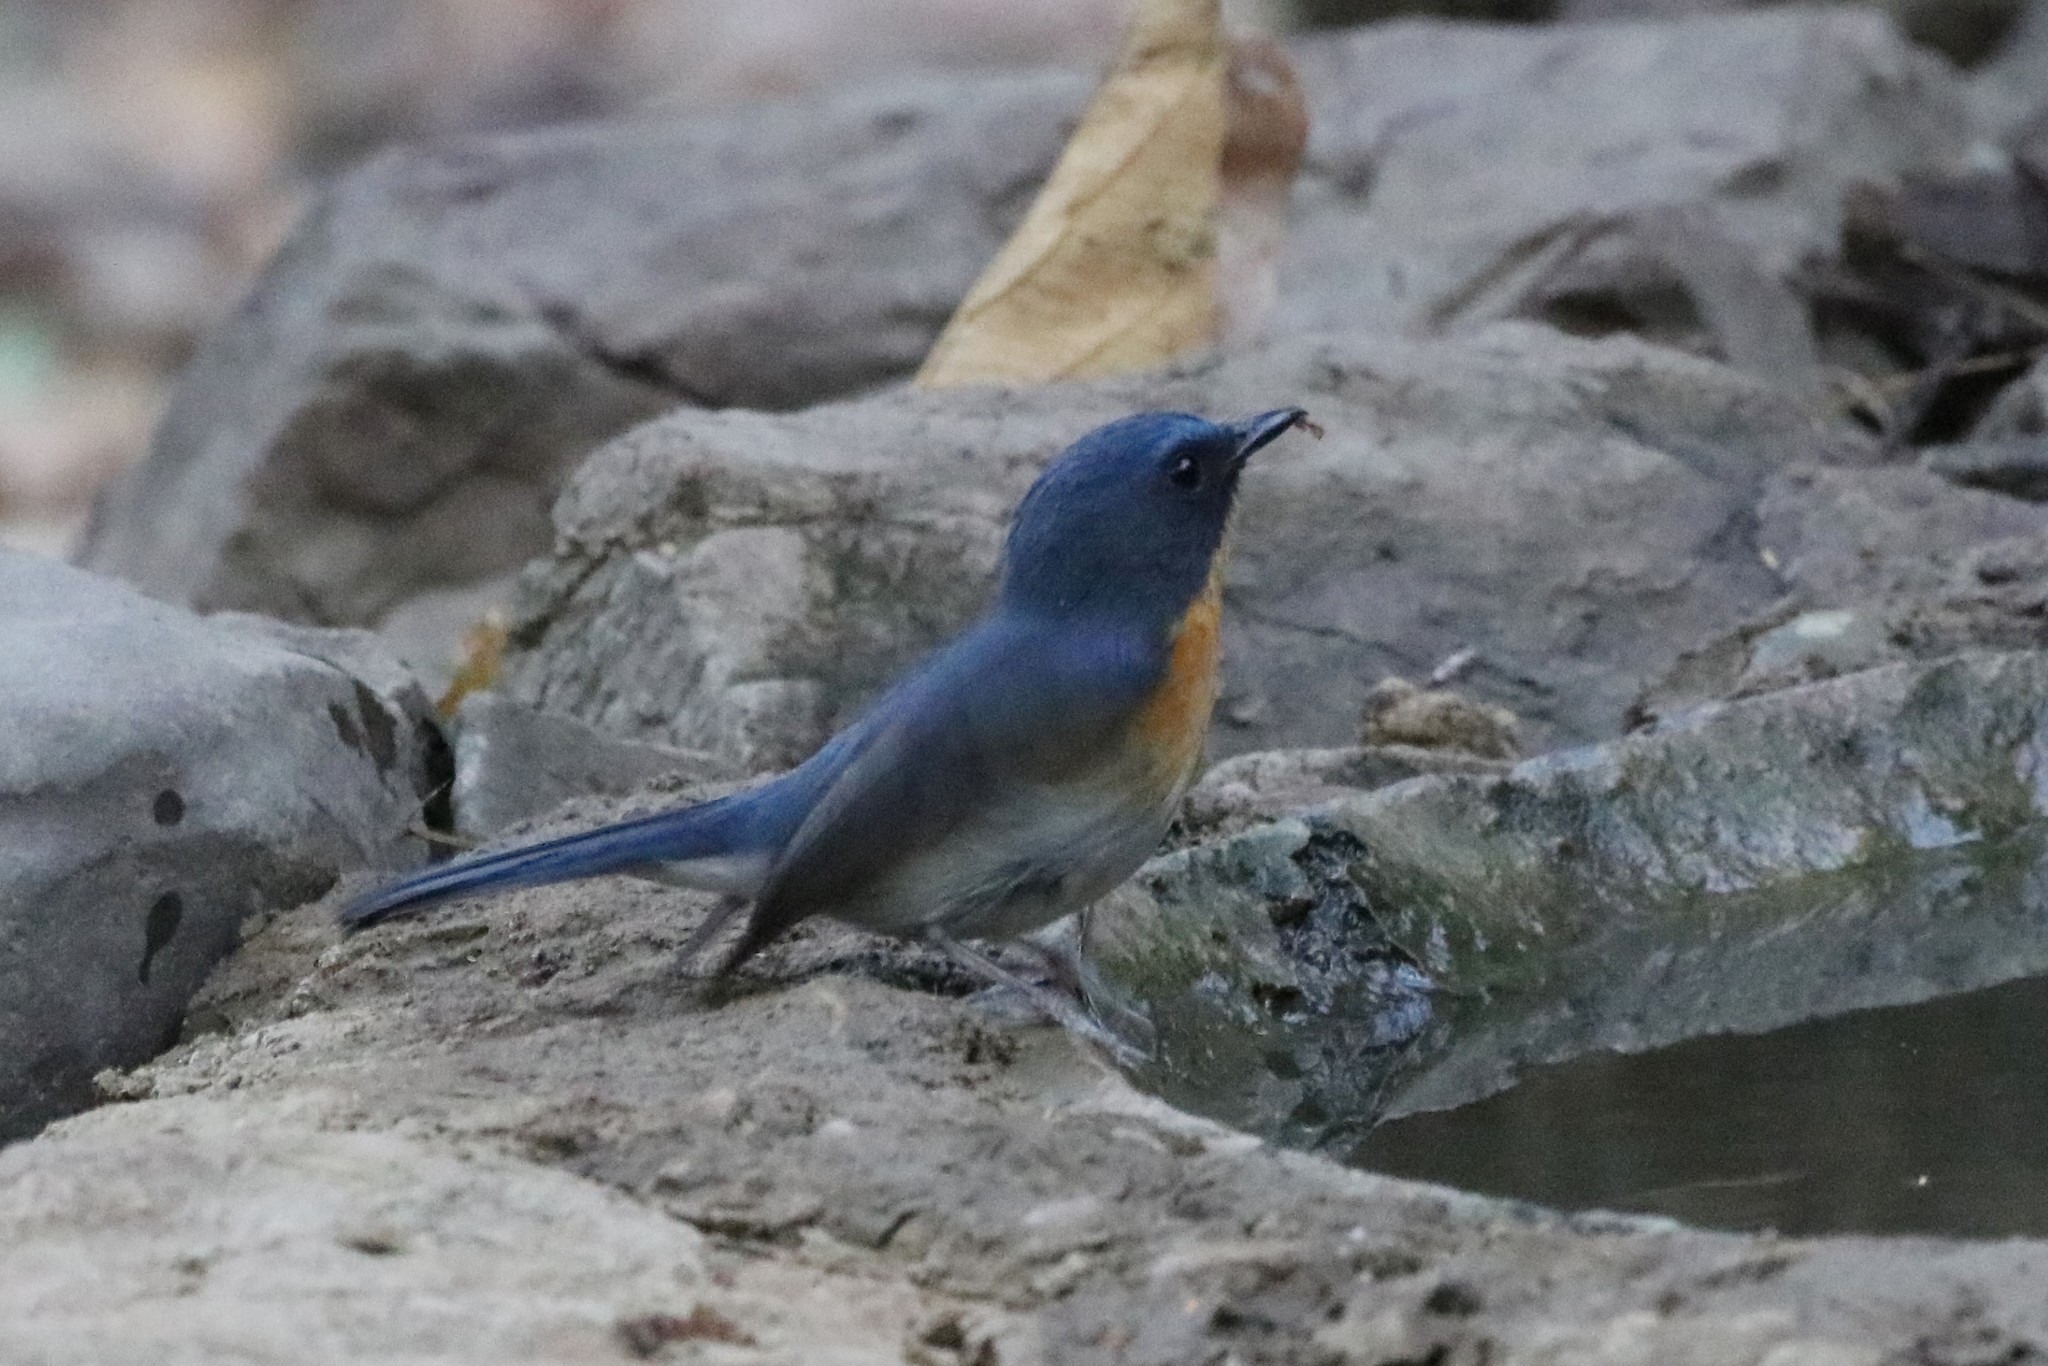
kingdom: Animalia
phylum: Chordata
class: Aves
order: Passeriformes
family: Muscicapidae
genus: Cyornis
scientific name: Cyornis tickelliae
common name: Tickell's blue flycatcher
